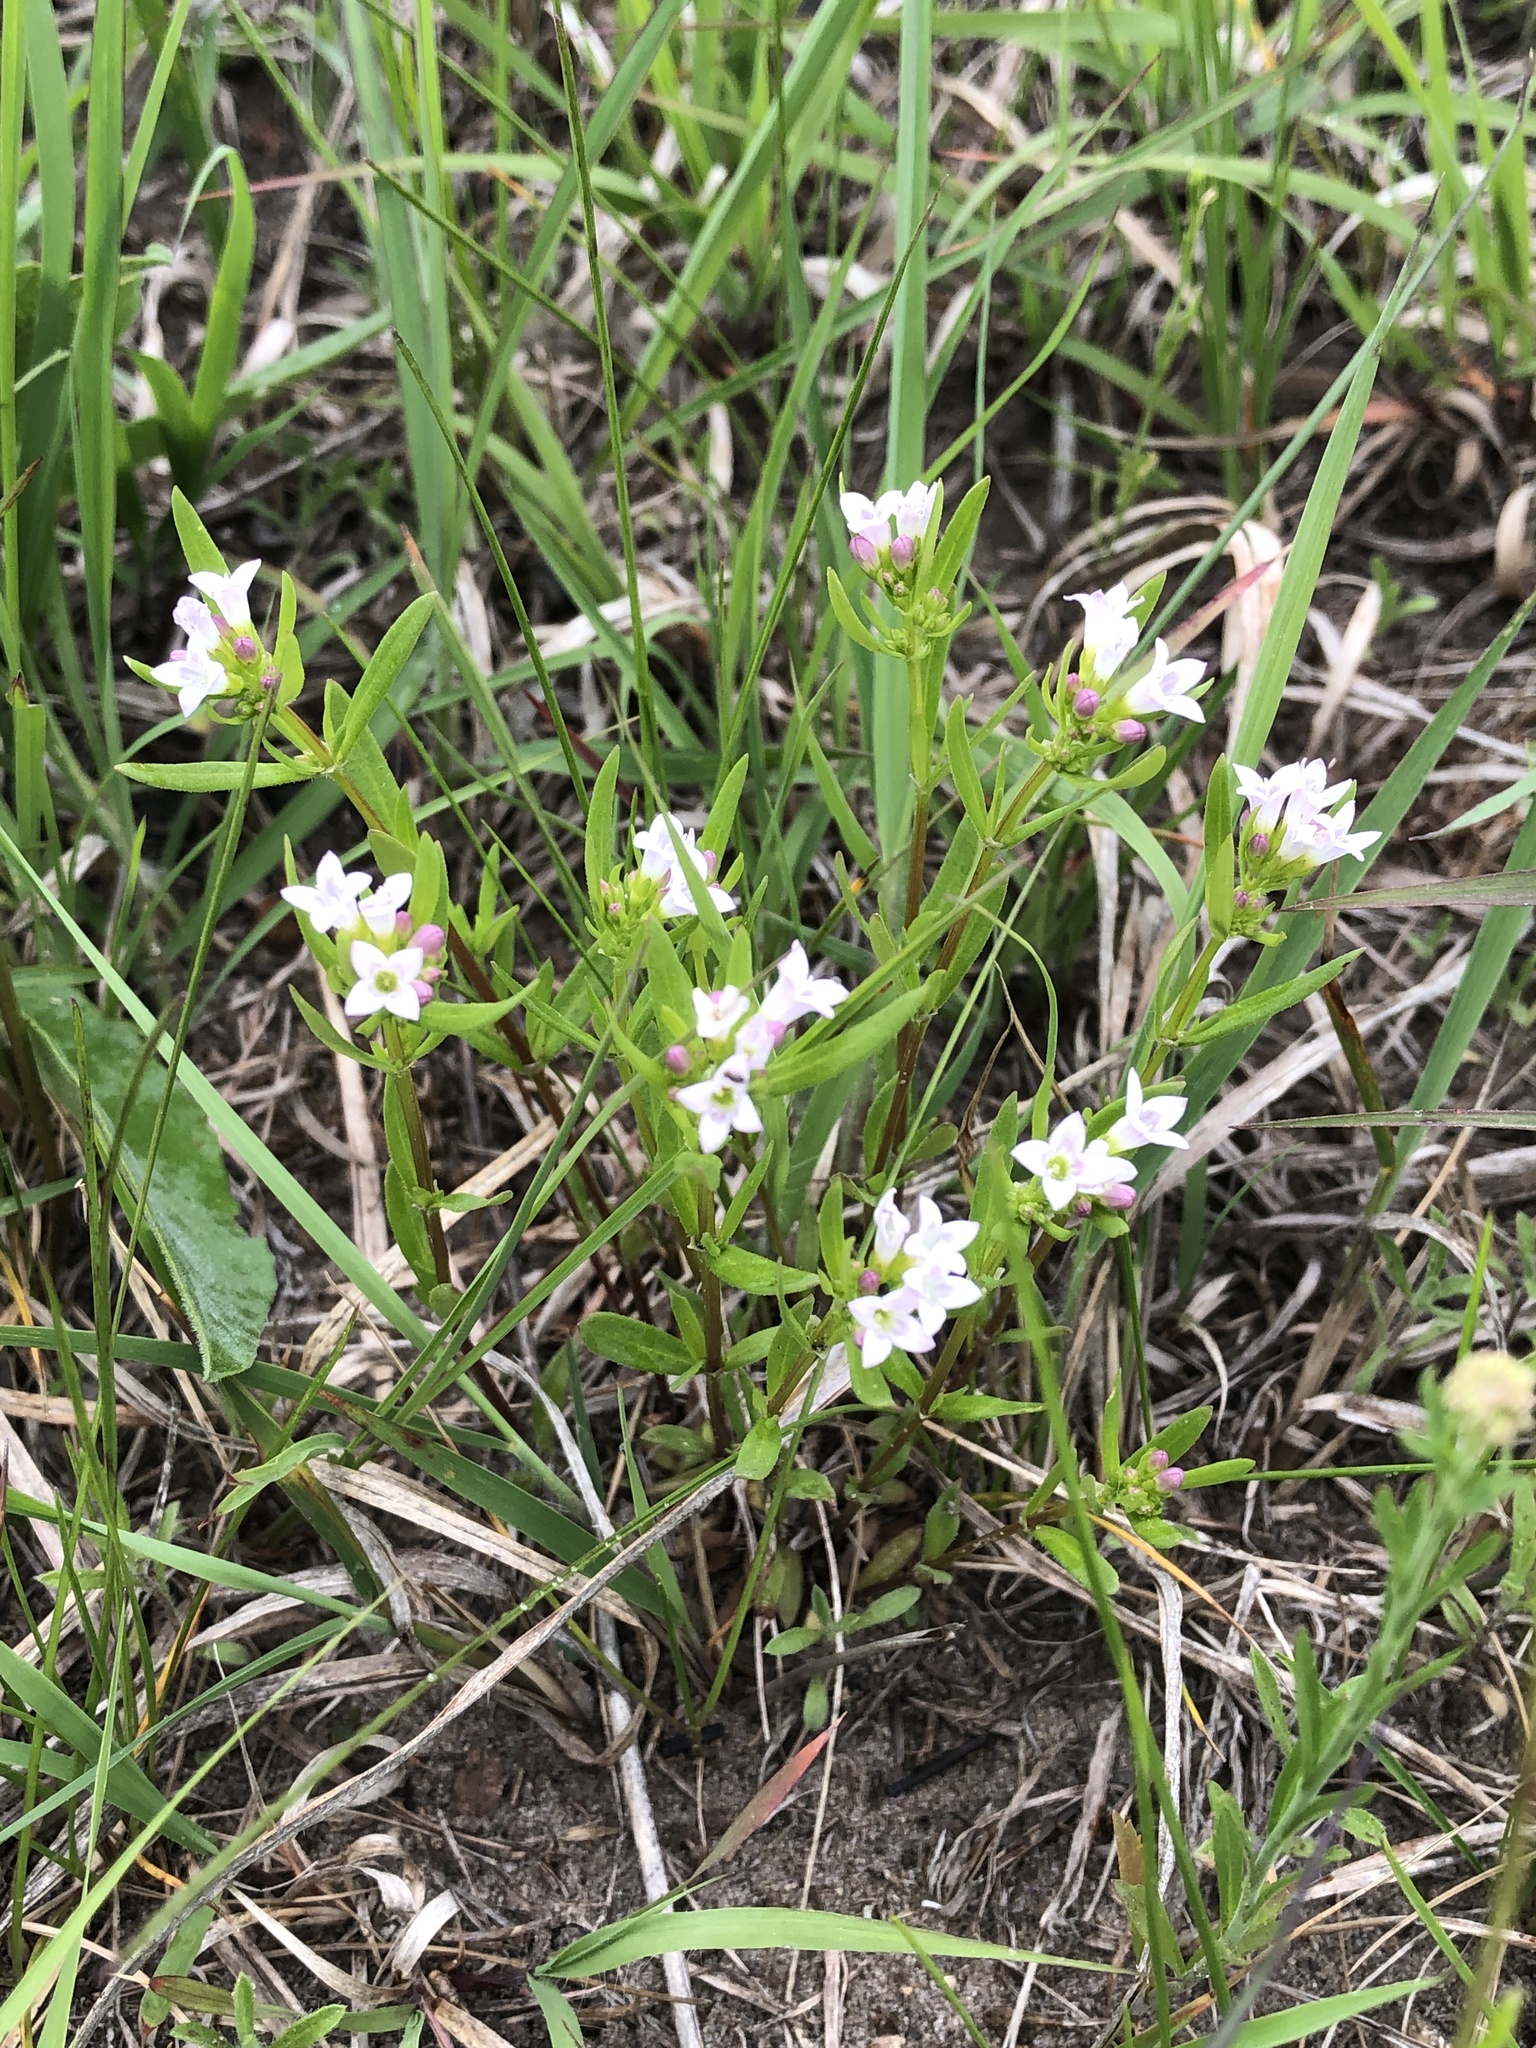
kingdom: Plantae
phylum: Tracheophyta
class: Magnoliopsida
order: Gentianales
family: Rubiaceae
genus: Houstonia
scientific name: Houstonia longifolia
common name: Long-leaved bluets
